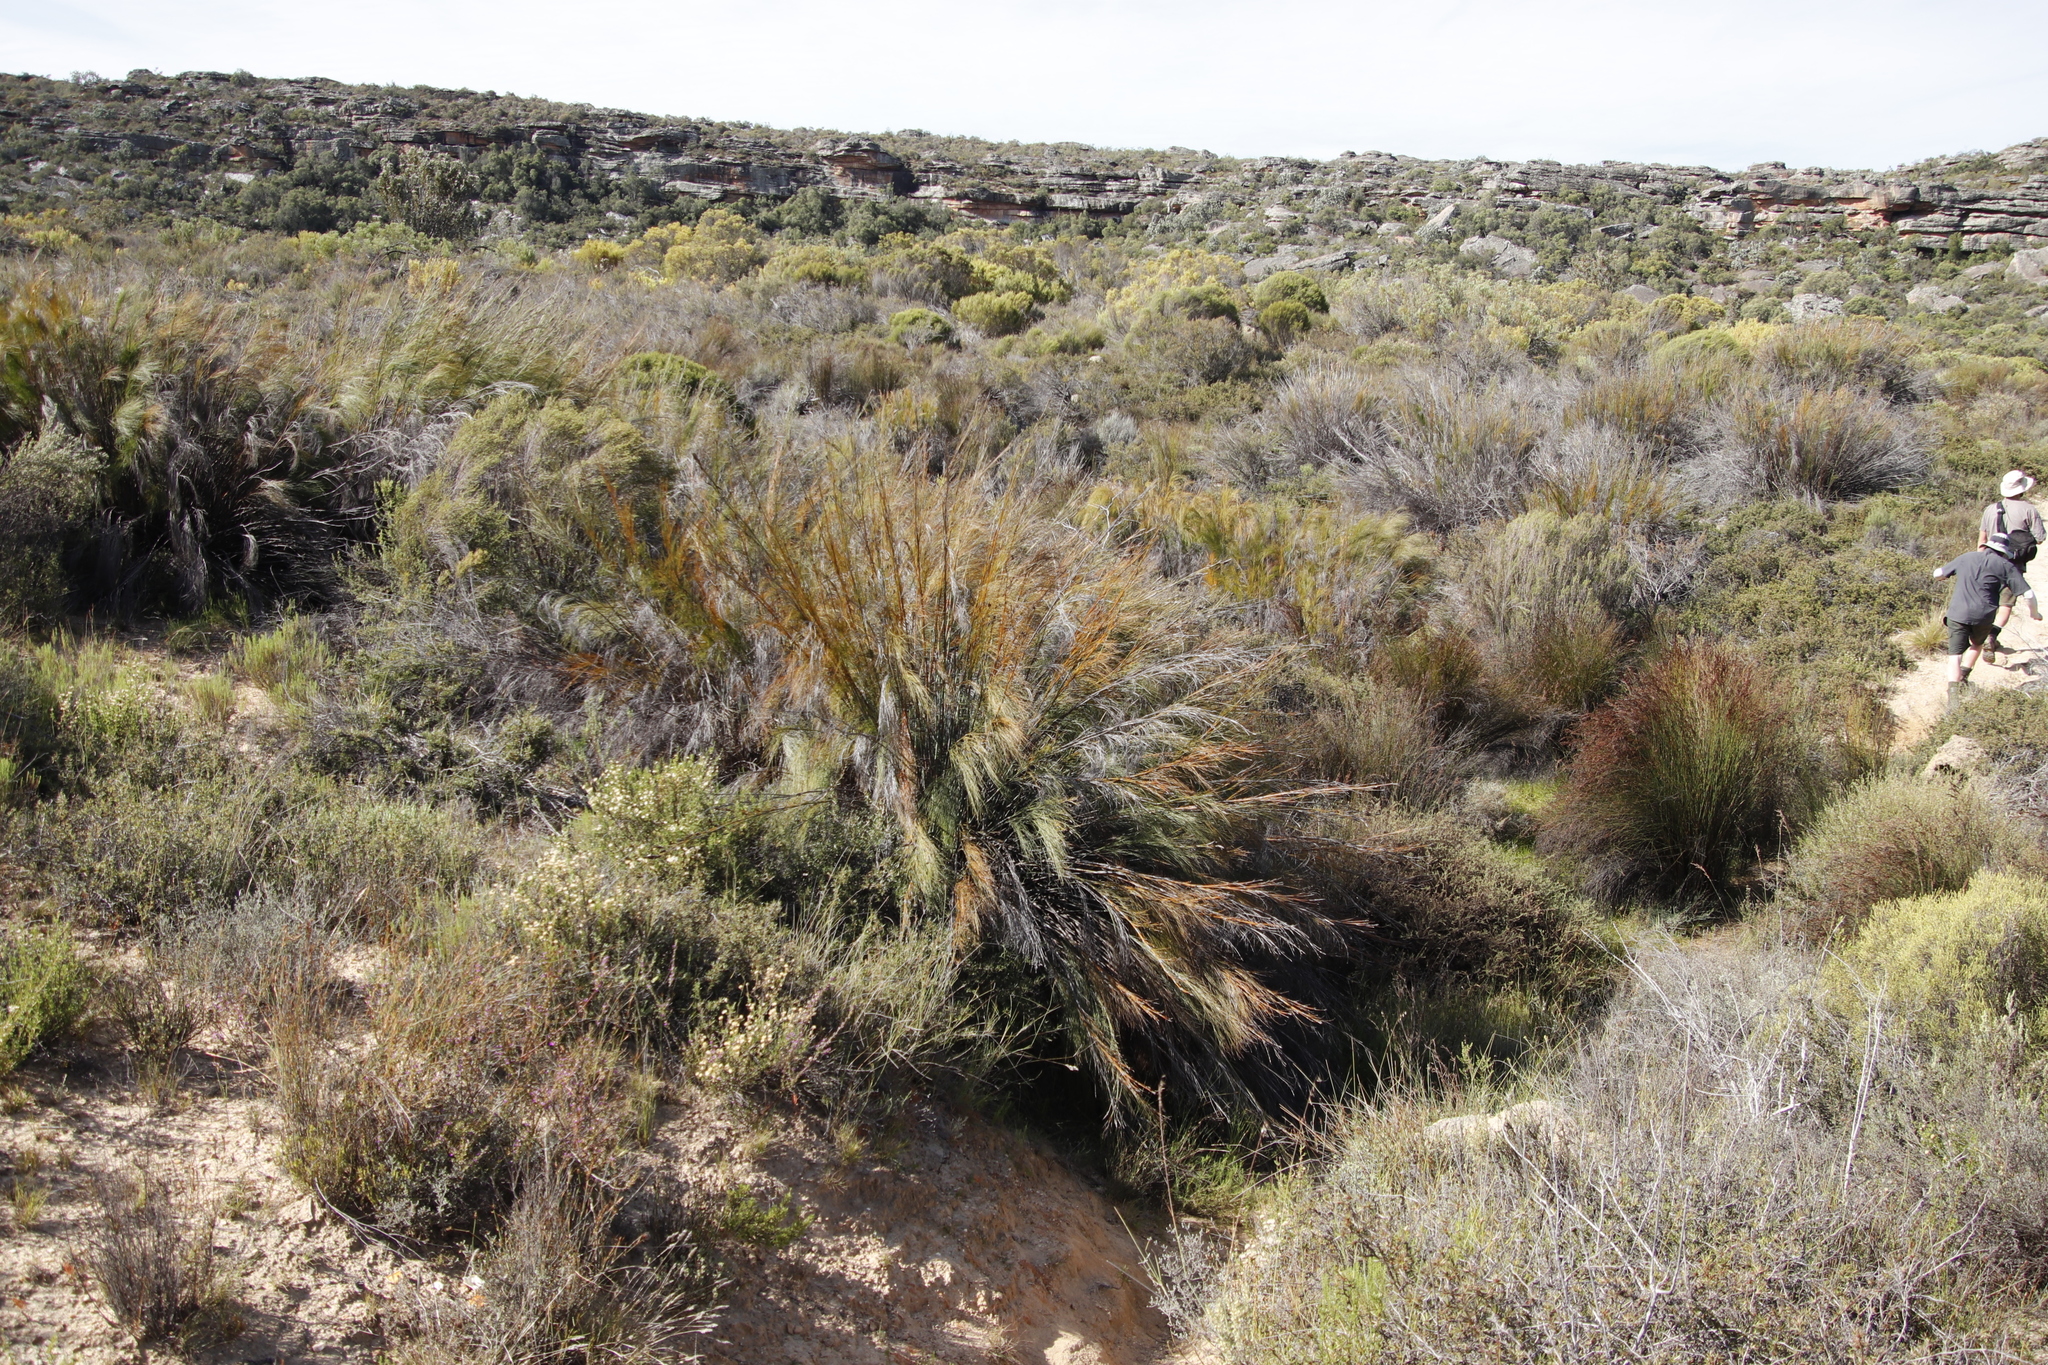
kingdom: Plantae
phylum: Tracheophyta
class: Liliopsida
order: Poales
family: Restionaceae
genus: Cannomois
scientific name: Cannomois robusta
